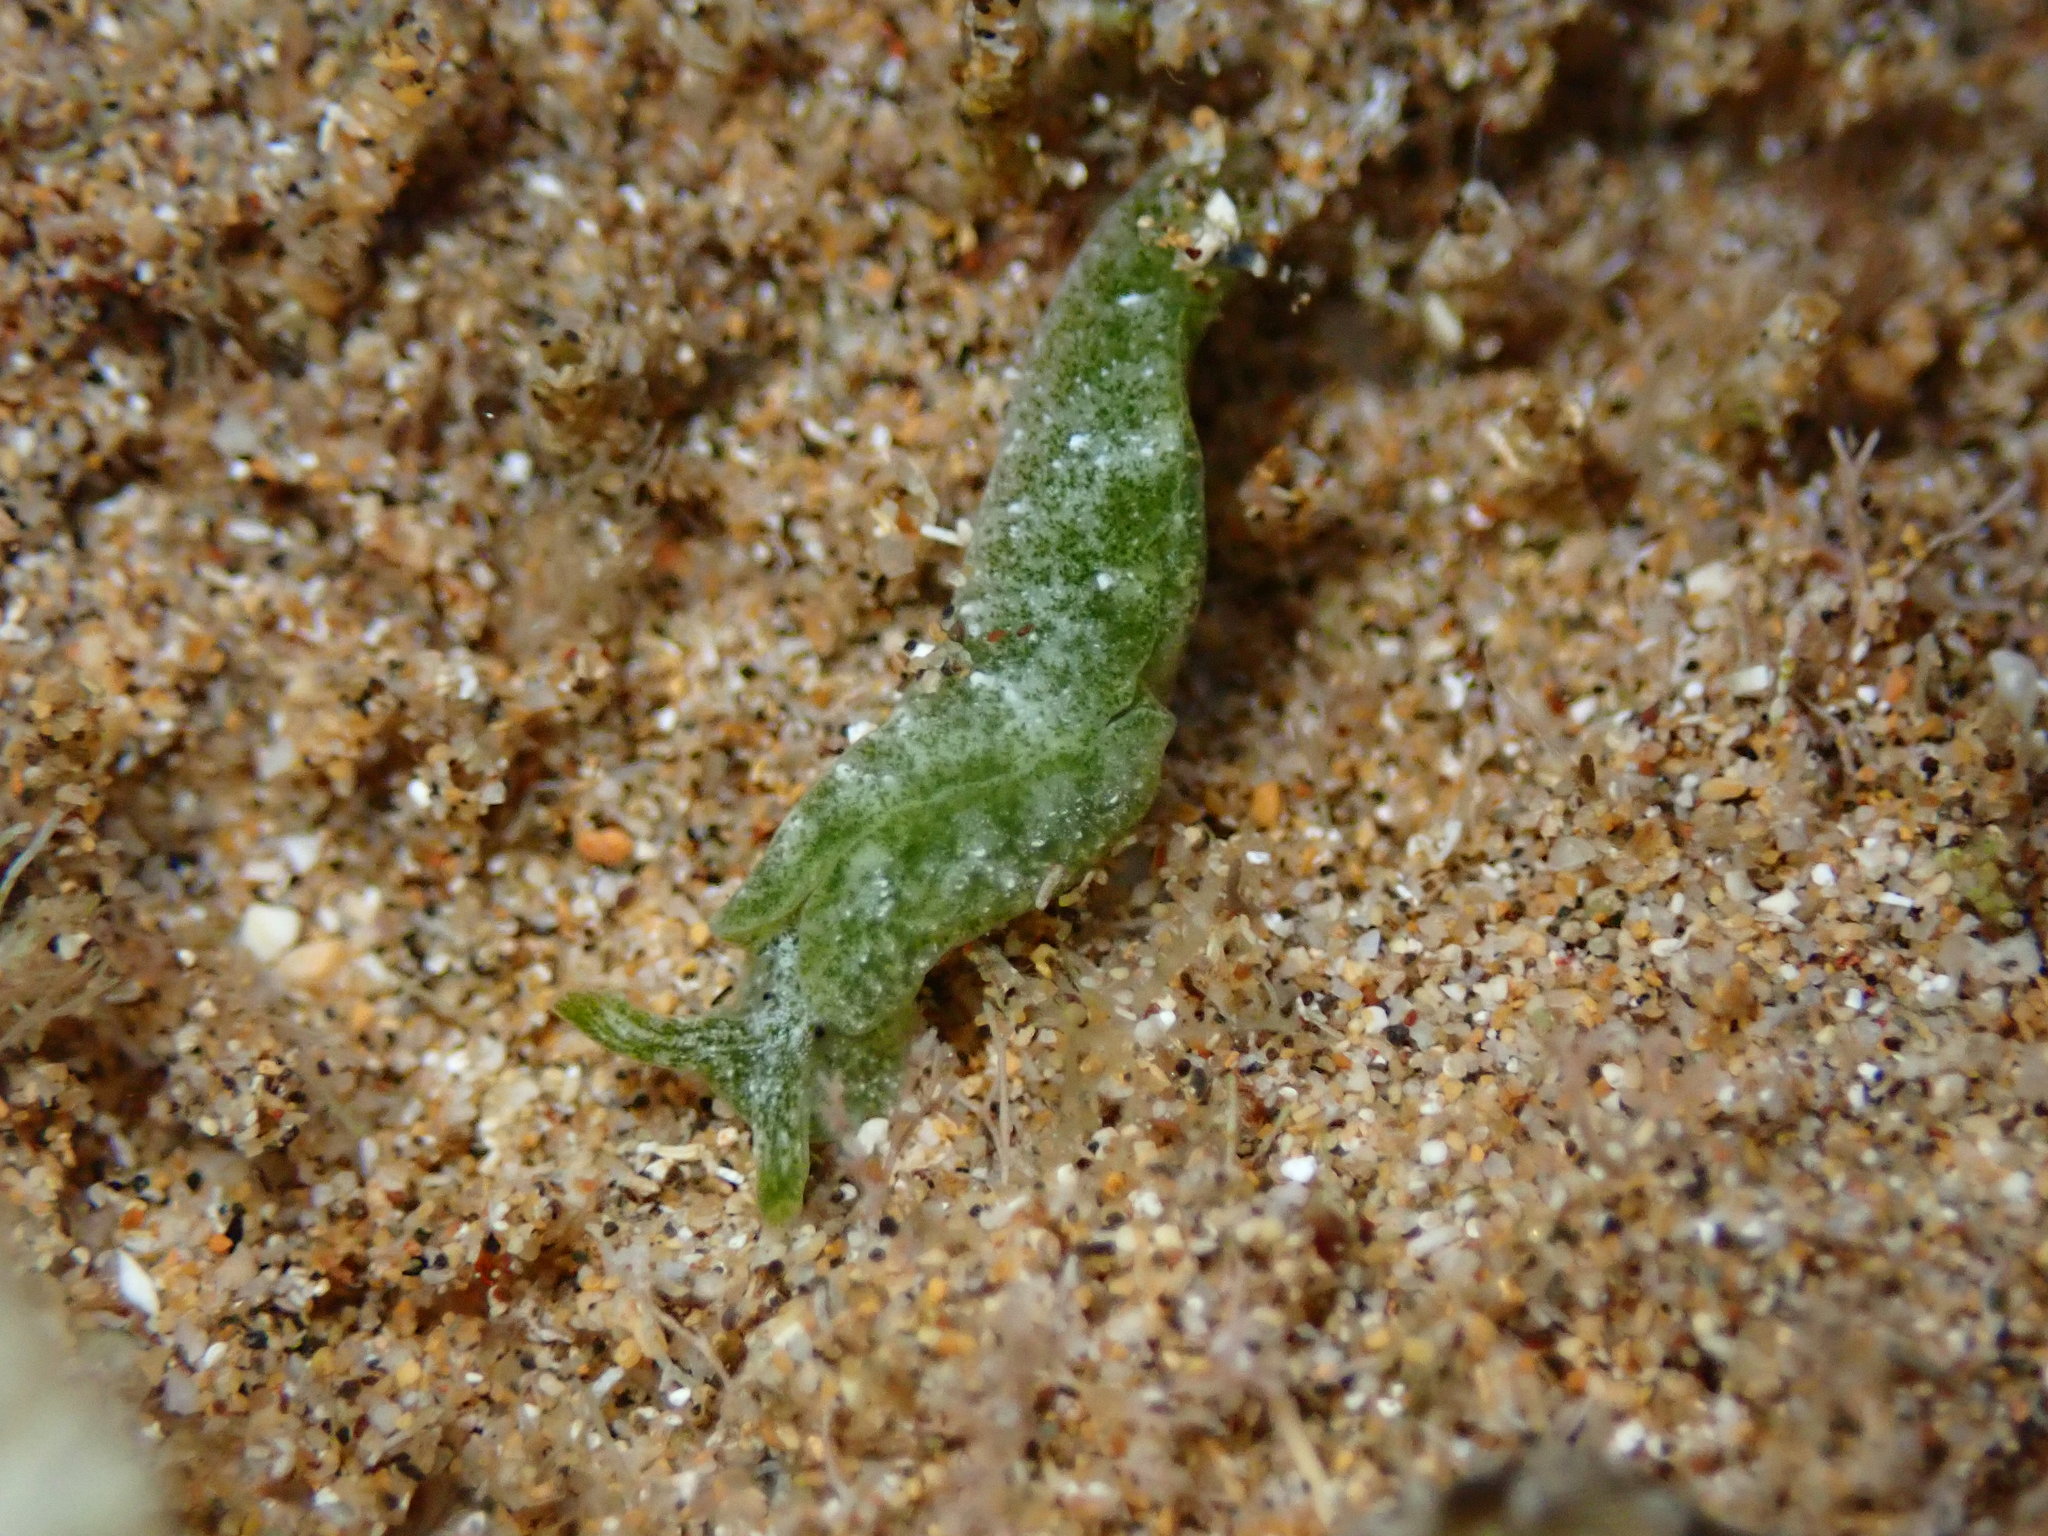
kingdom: Animalia
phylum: Mollusca
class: Gastropoda
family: Plakobranchidae
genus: Elysia
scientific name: Elysia nealae
